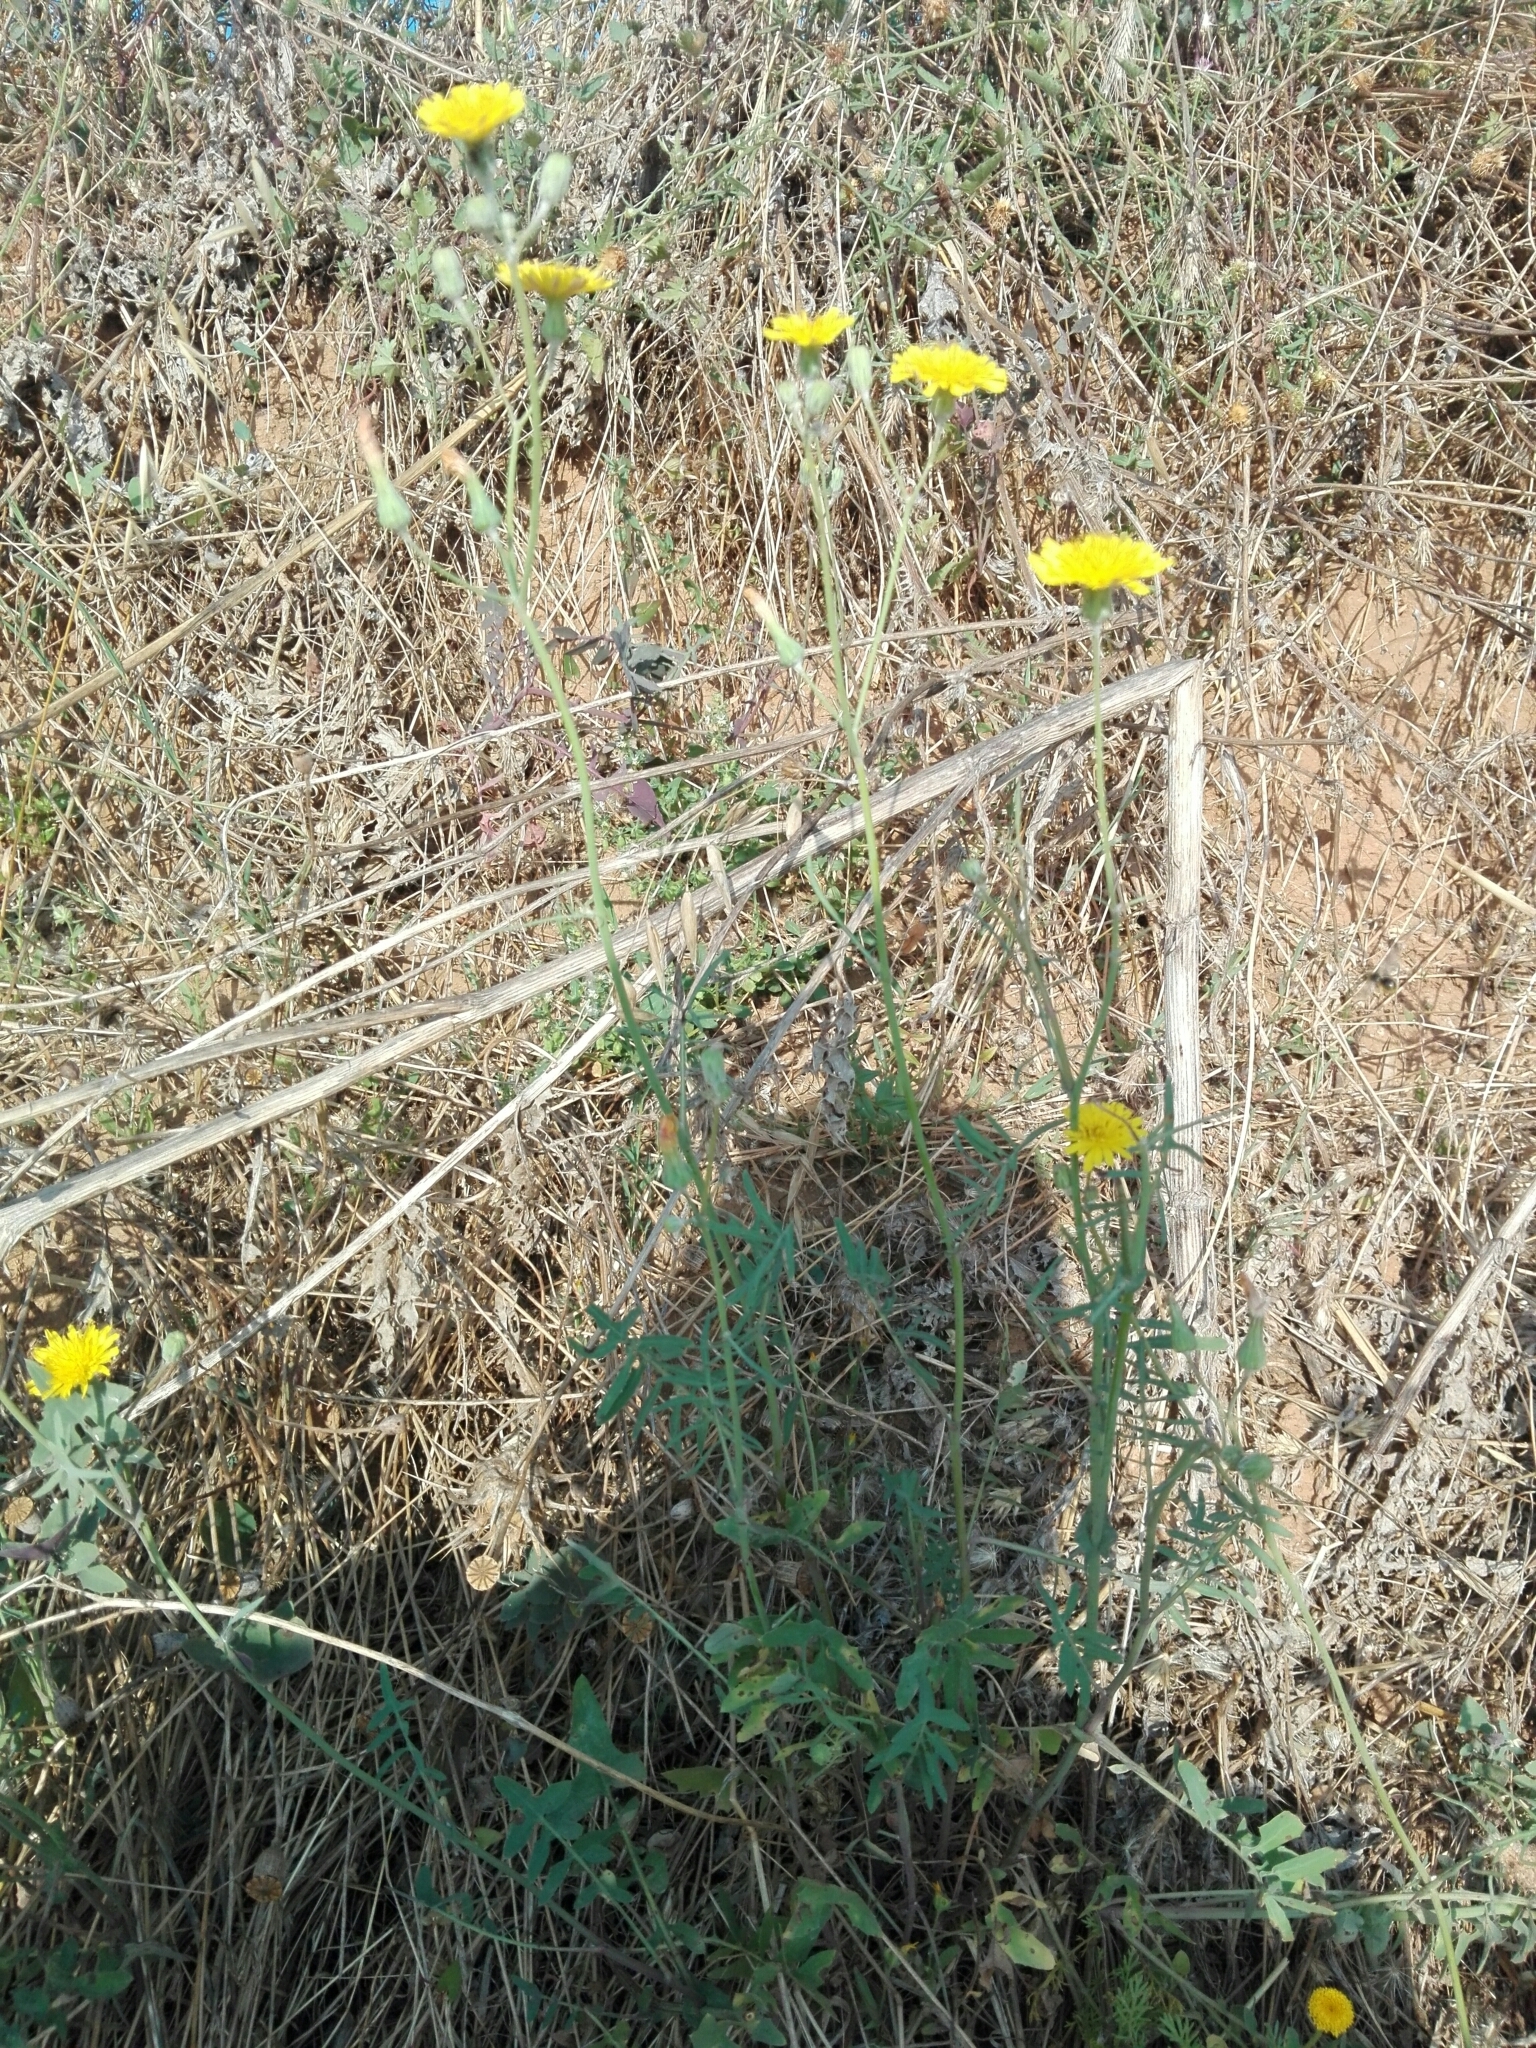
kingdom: Plantae
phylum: Tracheophyta
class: Magnoliopsida
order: Asterales
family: Asteraceae
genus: Hypochaeris
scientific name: Hypochaeris radicata
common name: Flatweed
